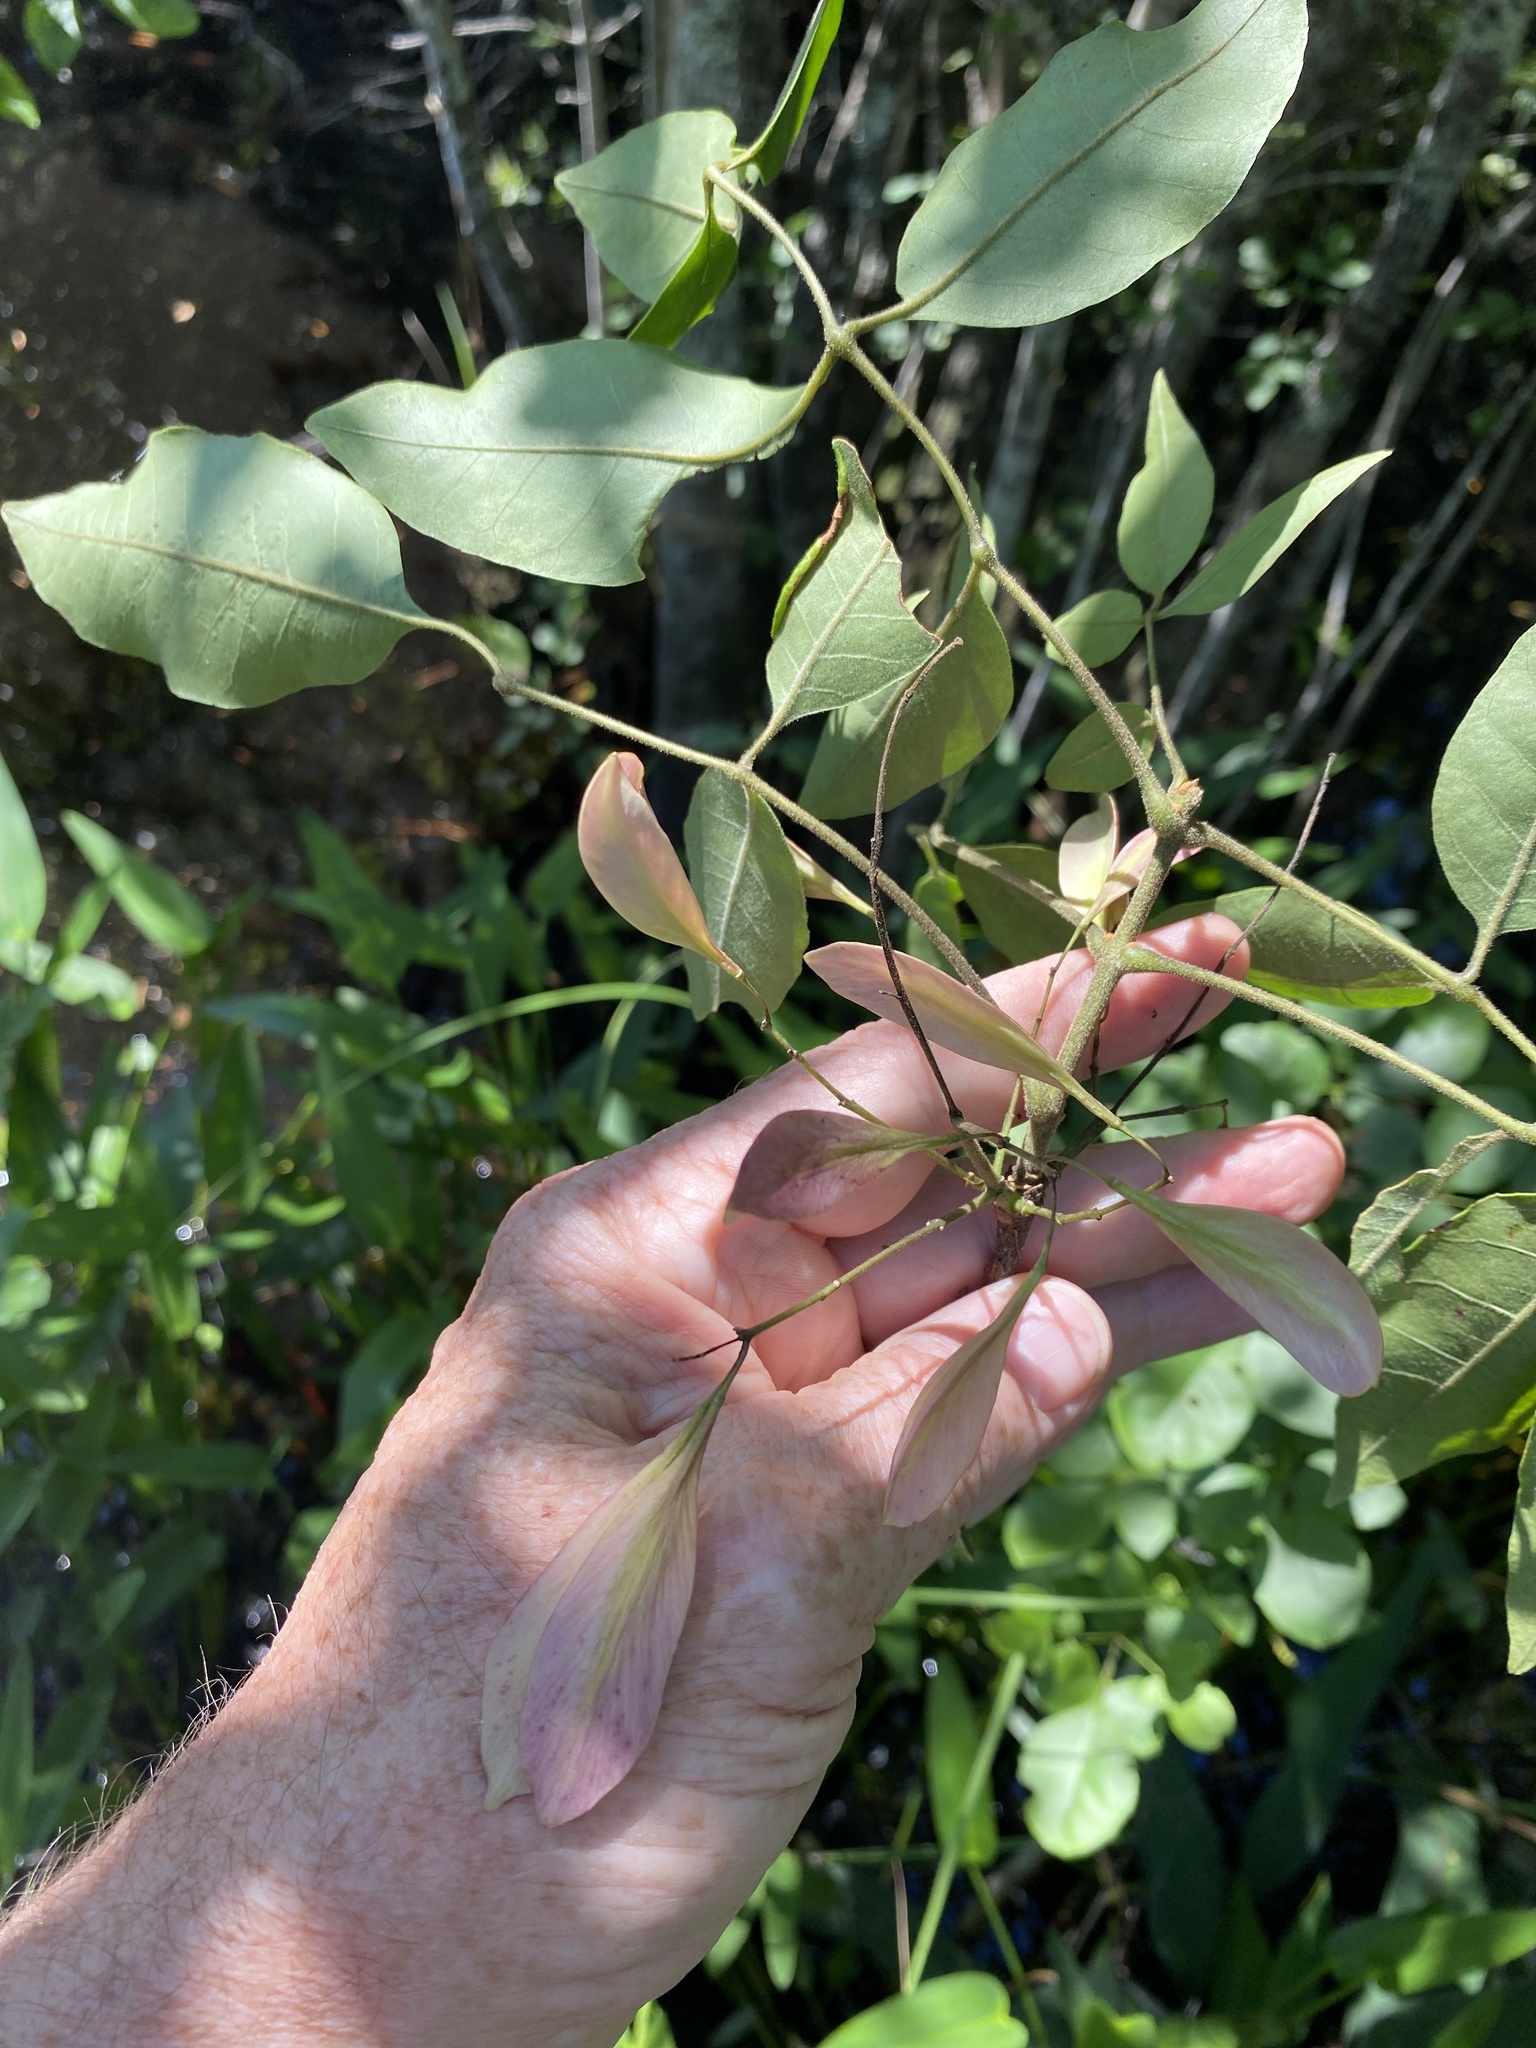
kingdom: Plantae
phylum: Tracheophyta
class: Magnoliopsida
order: Lamiales
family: Oleaceae
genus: Fraxinus
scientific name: Fraxinus caroliniana
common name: Carolina ash
